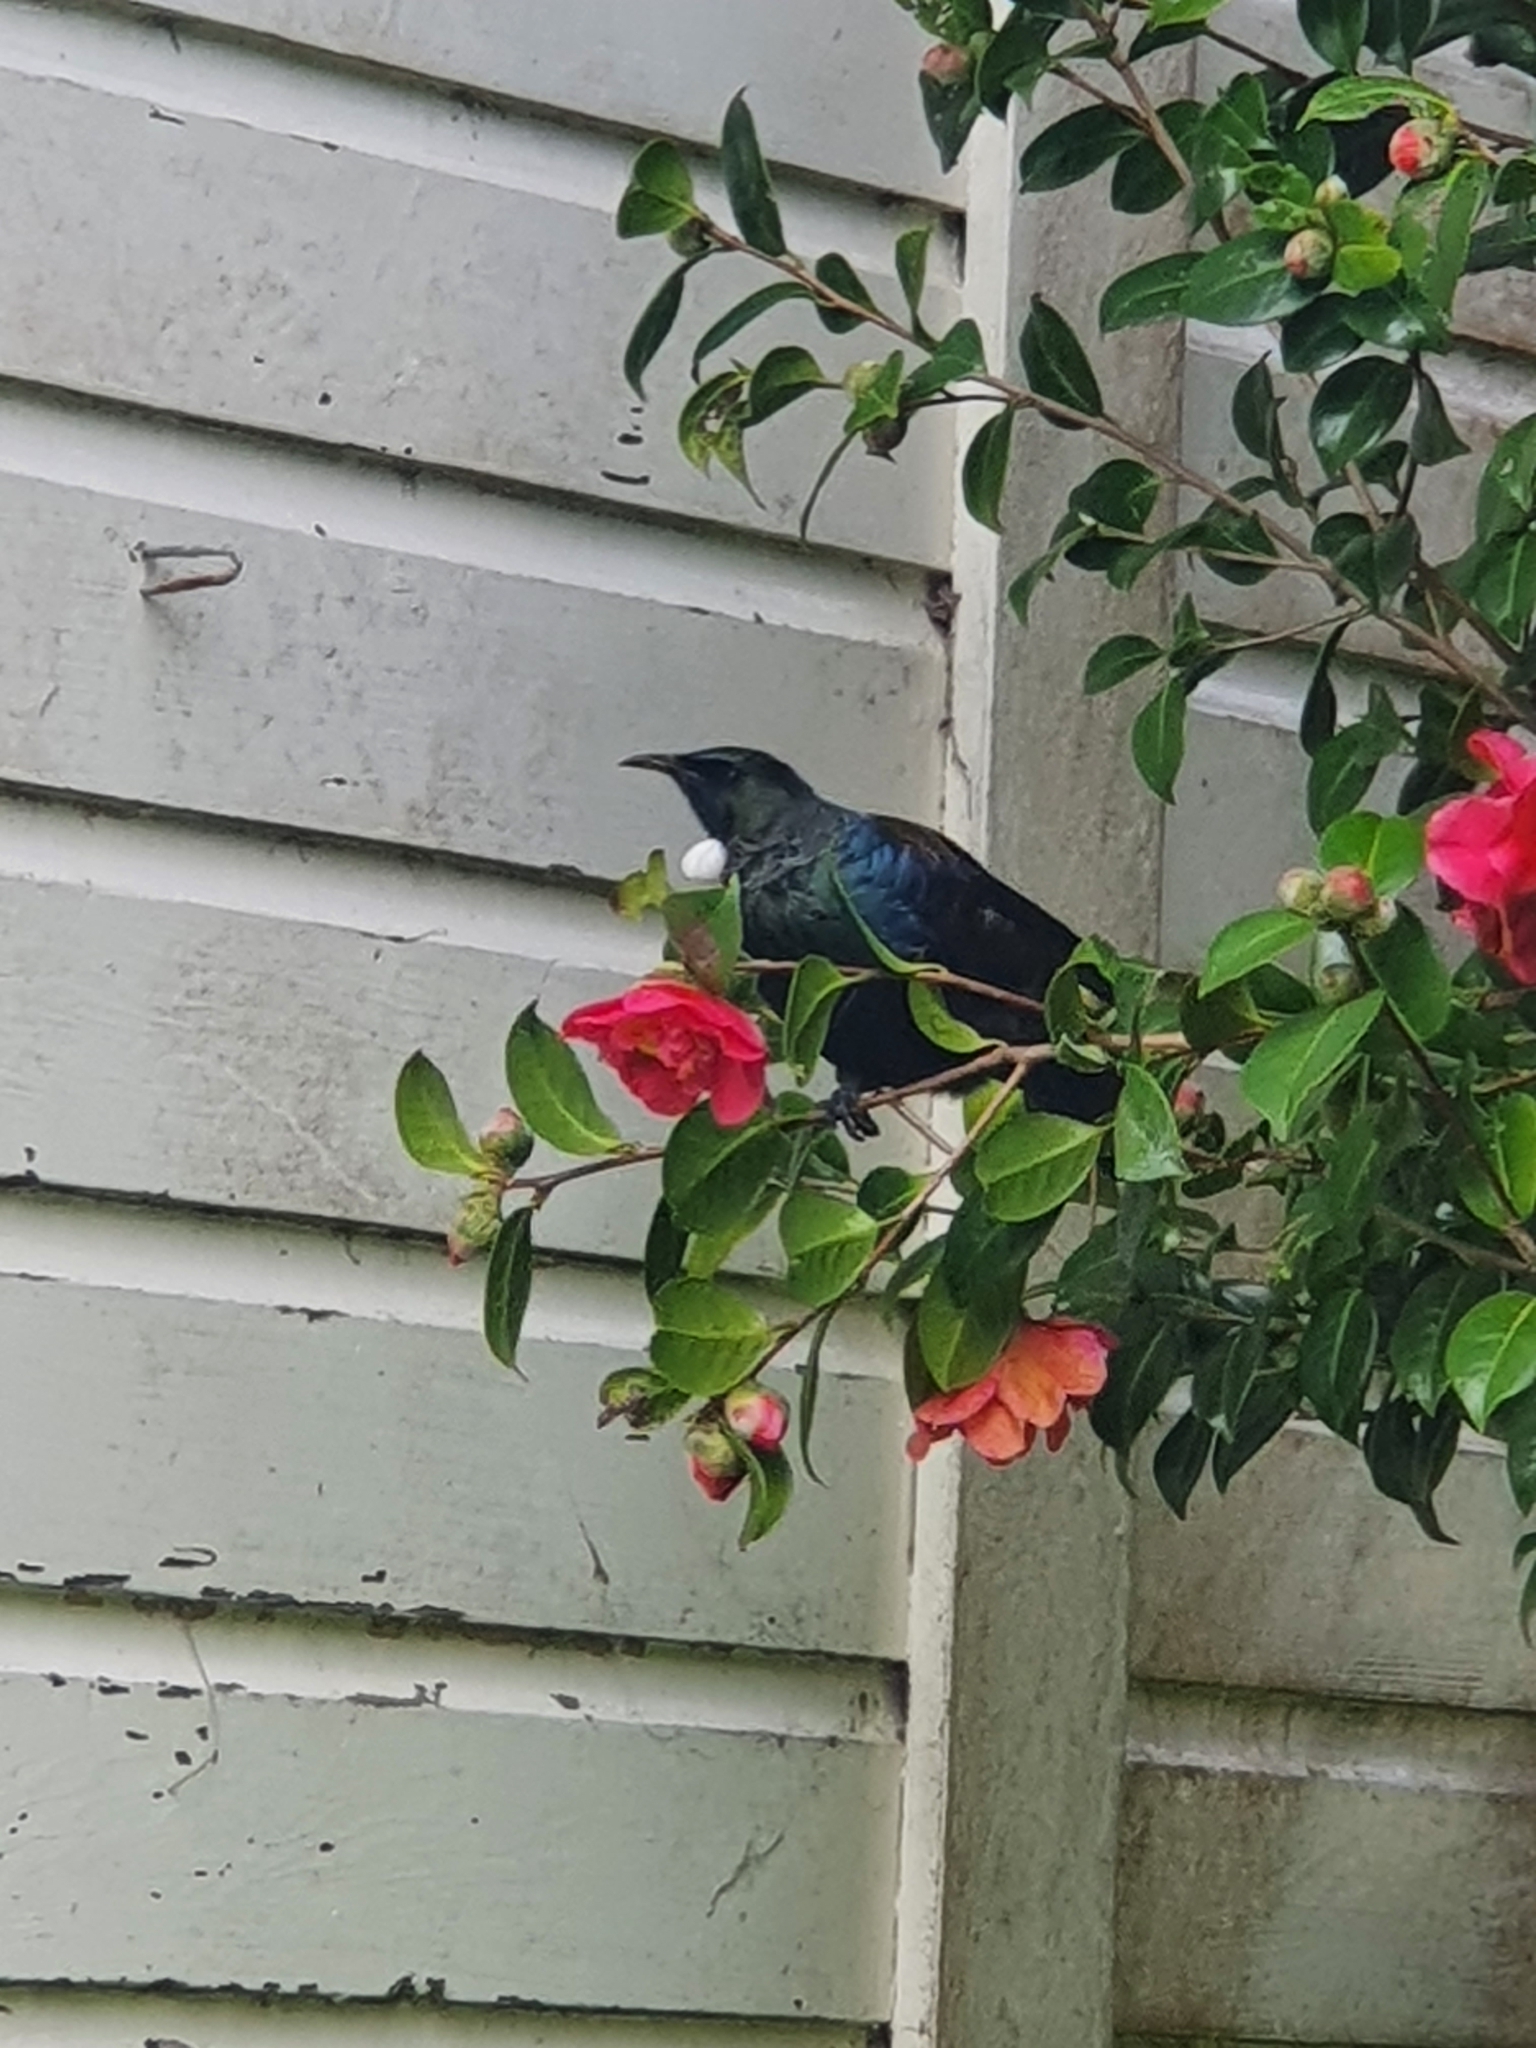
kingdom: Animalia
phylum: Chordata
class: Aves
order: Passeriformes
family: Meliphagidae
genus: Prosthemadera
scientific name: Prosthemadera novaeseelandiae
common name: Tui
